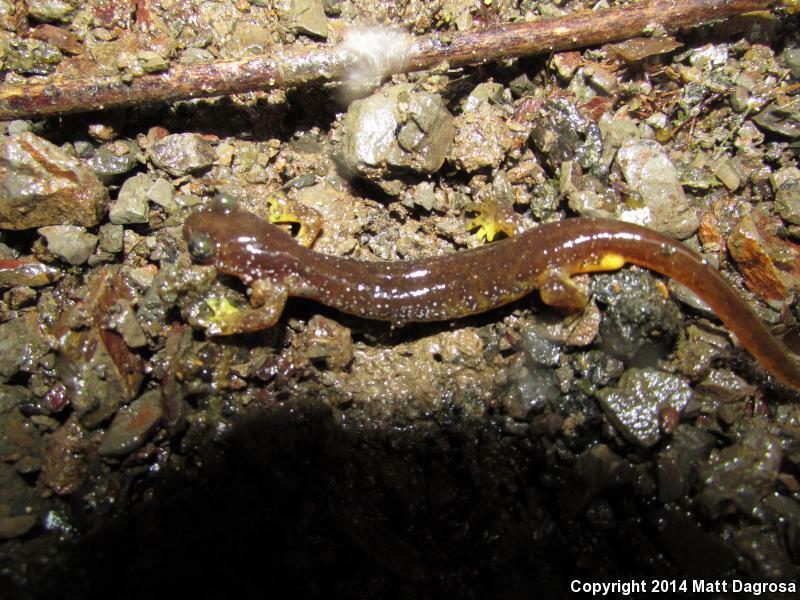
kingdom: Animalia
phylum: Chordata
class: Amphibia
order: Caudata
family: Rhyacotritonidae
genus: Rhyacotriton
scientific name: Rhyacotriton kezeri
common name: Columbia torrent salamander
